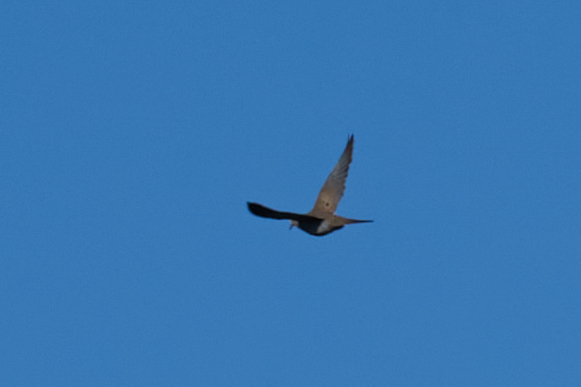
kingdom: Animalia
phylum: Chordata
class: Aves
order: Columbiformes
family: Columbidae
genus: Zenaida
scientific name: Zenaida macroura
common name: Mourning dove
